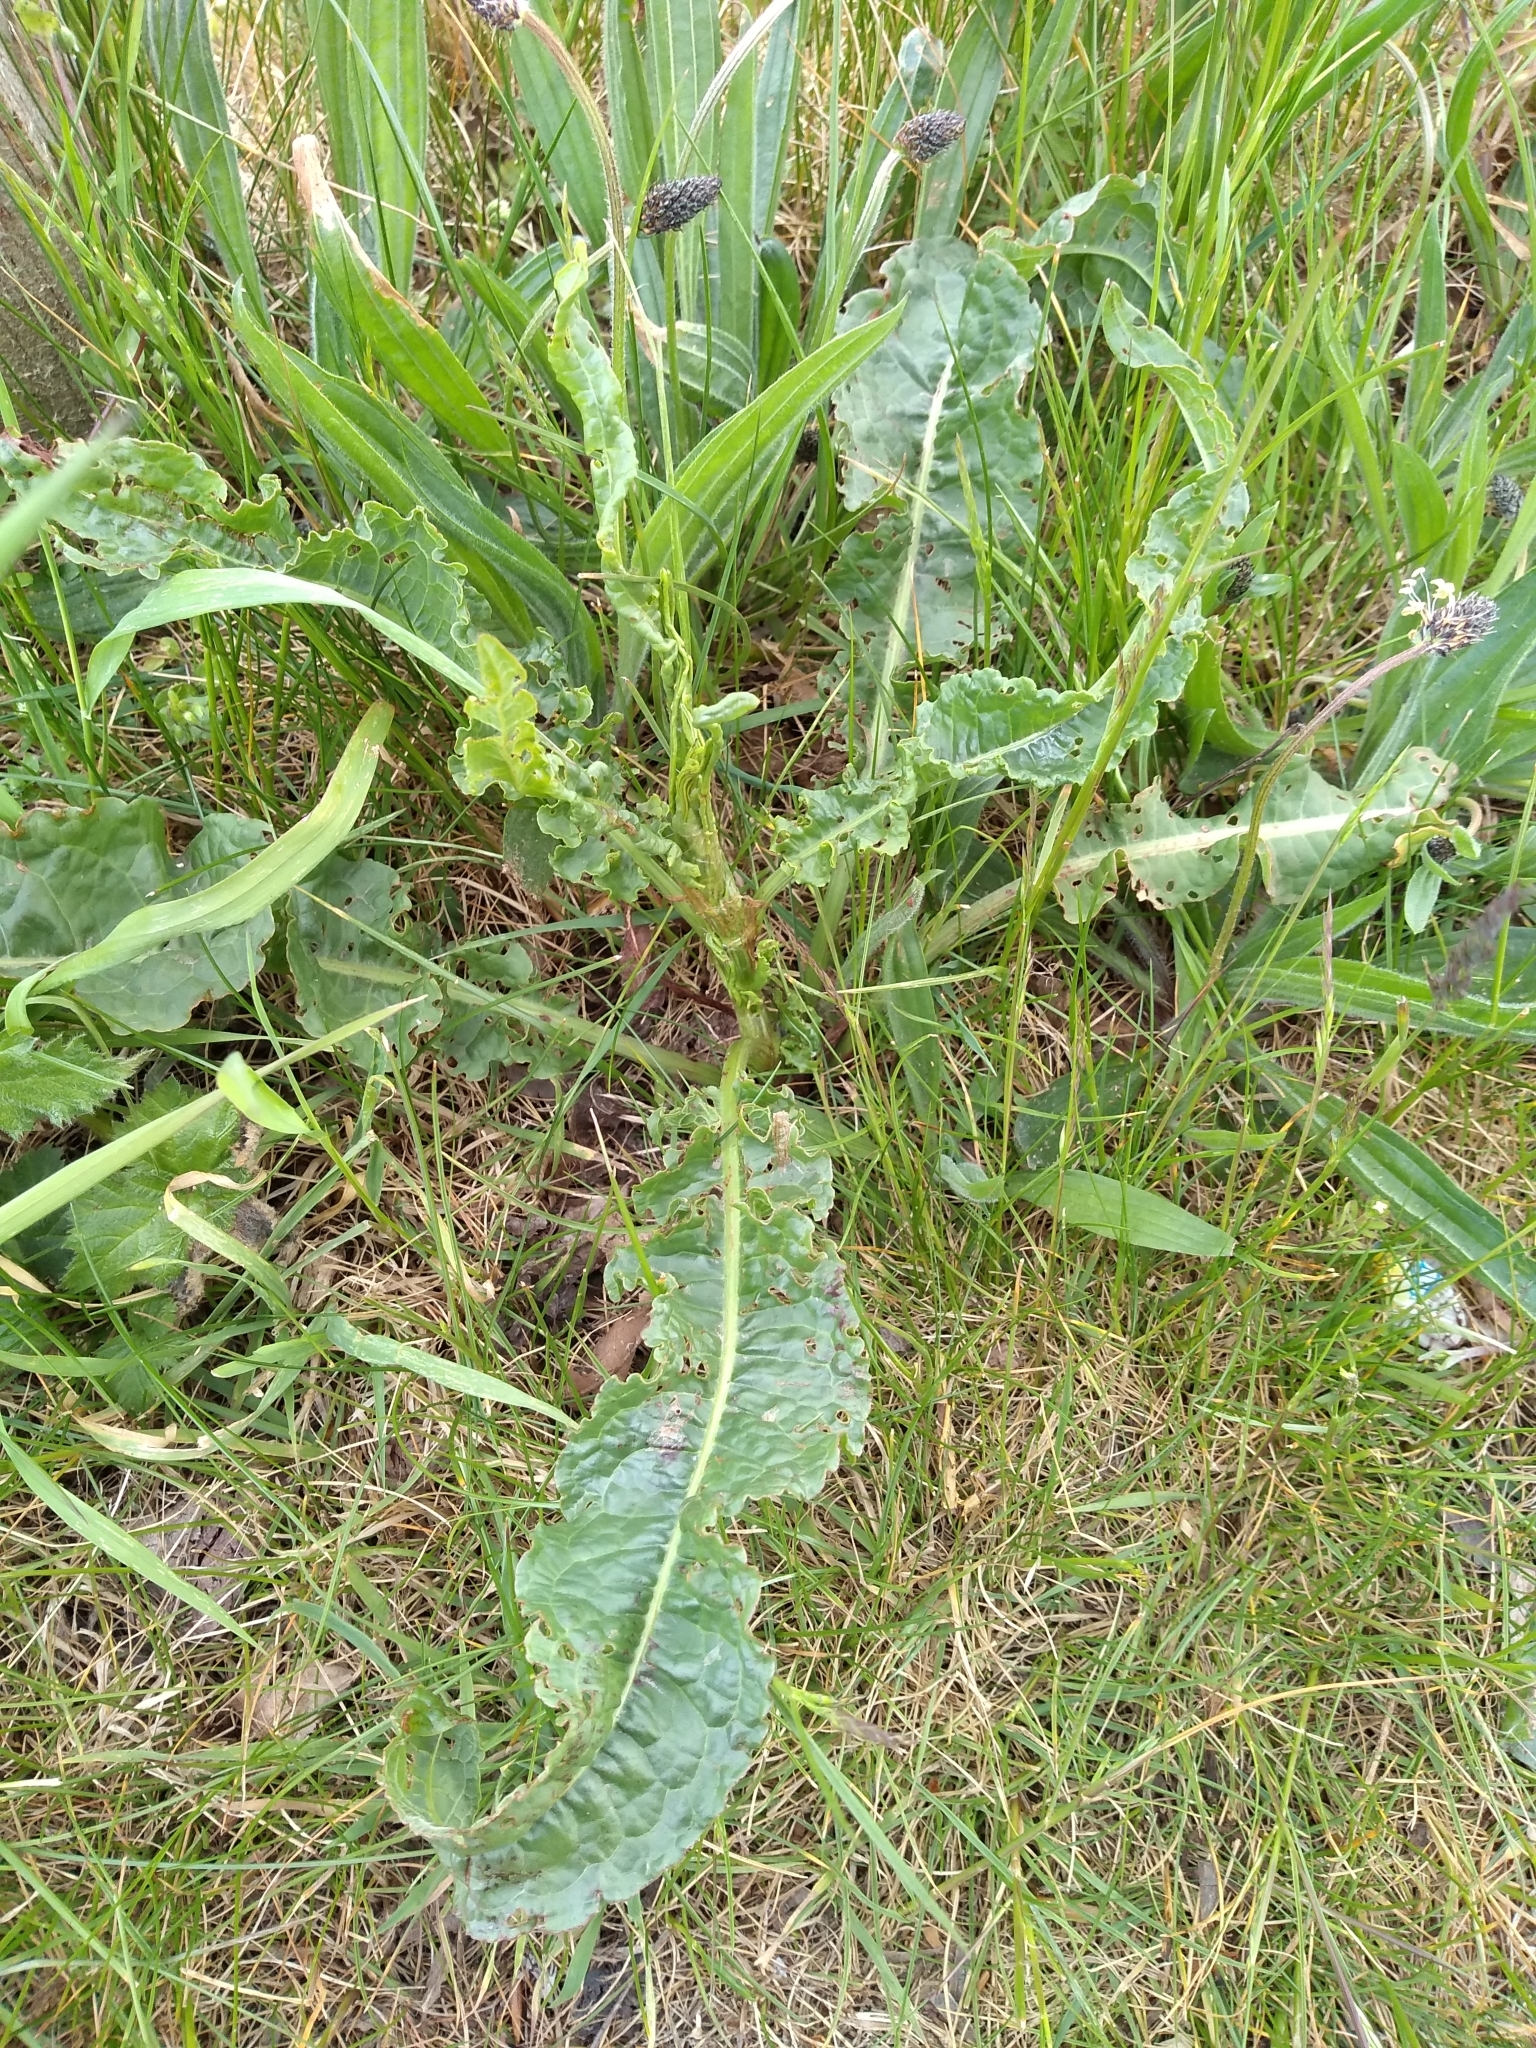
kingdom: Plantae
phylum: Tracheophyta
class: Magnoliopsida
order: Caryophyllales
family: Polygonaceae
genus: Rumex
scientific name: Rumex crispus
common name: Curled dock
